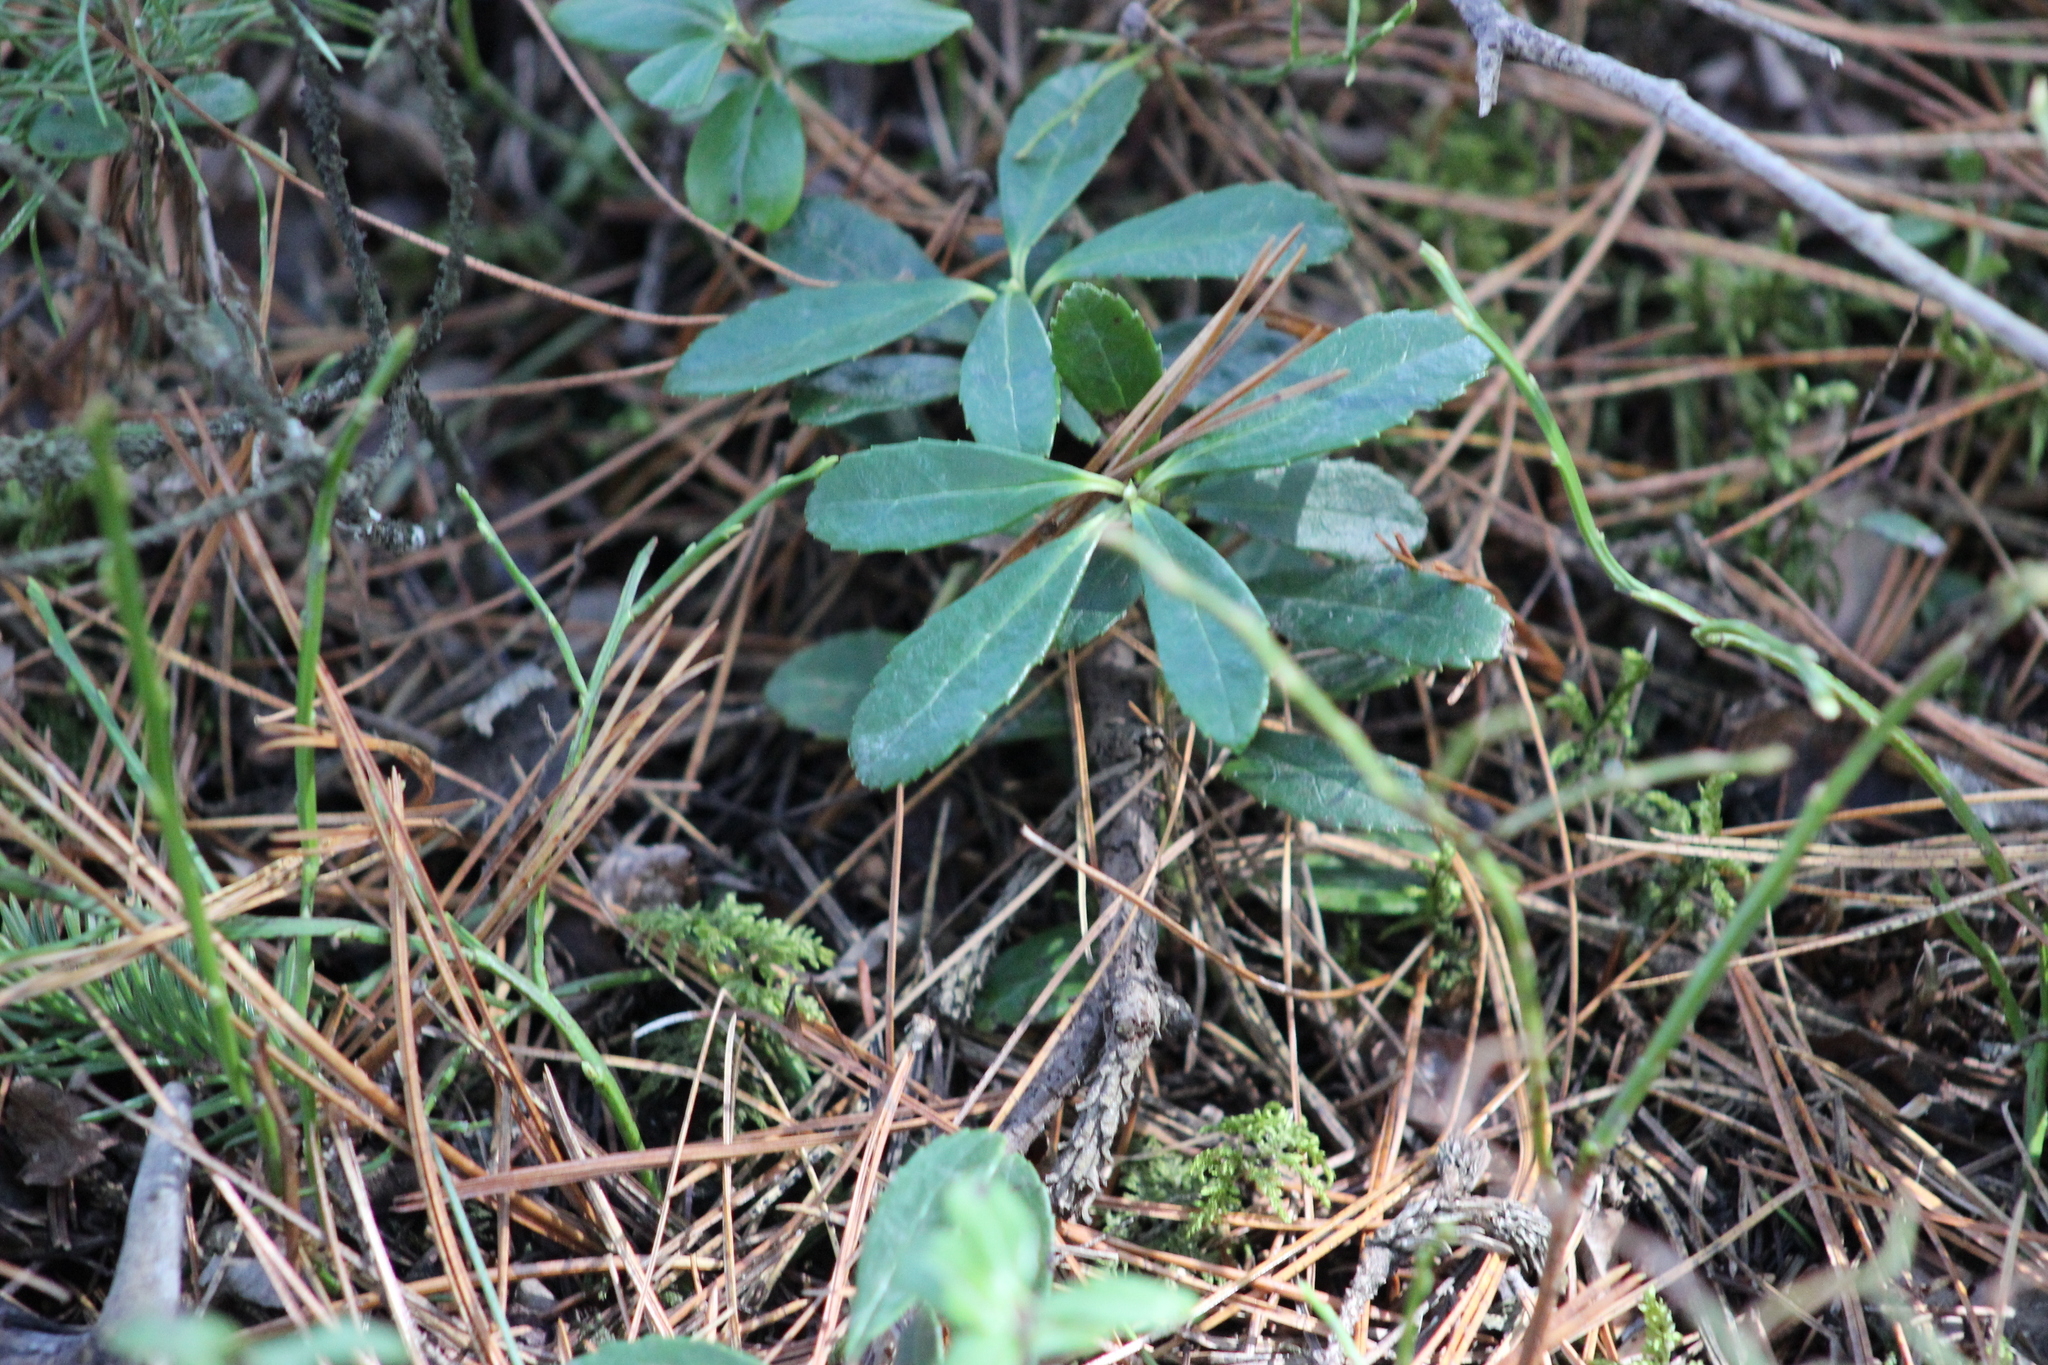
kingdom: Plantae
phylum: Tracheophyta
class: Magnoliopsida
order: Ericales
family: Ericaceae
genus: Chimaphila
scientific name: Chimaphila umbellata
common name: Pipsissewa
